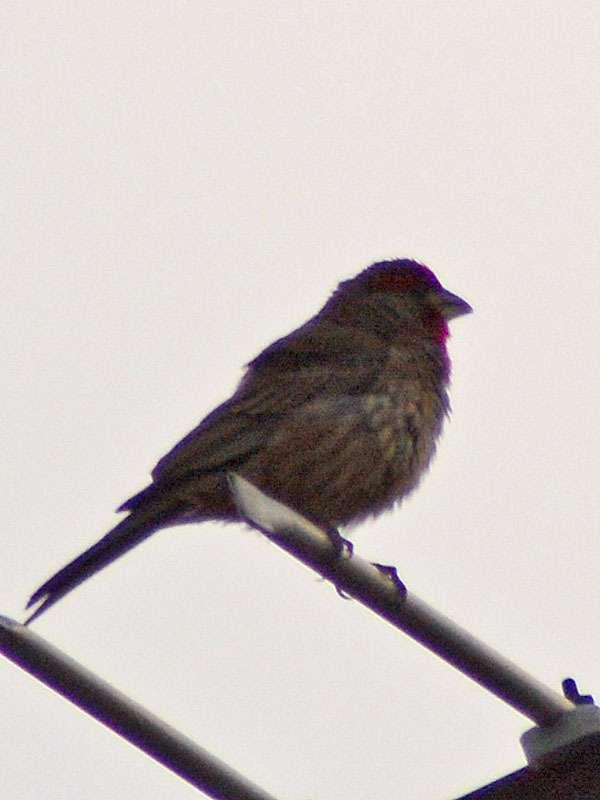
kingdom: Animalia
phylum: Chordata
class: Aves
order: Passeriformes
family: Fringillidae
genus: Haemorhous
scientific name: Haemorhous mexicanus
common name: House finch
